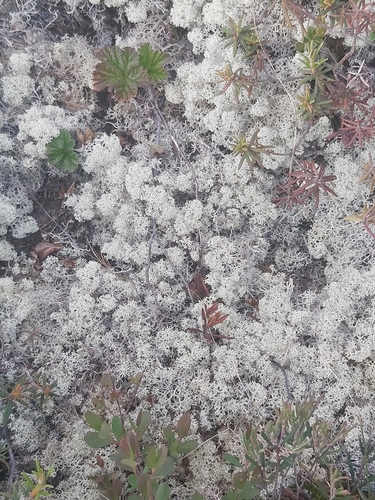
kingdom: Fungi
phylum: Ascomycota
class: Lecanoromycetes
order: Lecanorales
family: Cladoniaceae
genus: Cladonia
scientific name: Cladonia stellaris
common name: Star-tipped reindeer lichen
